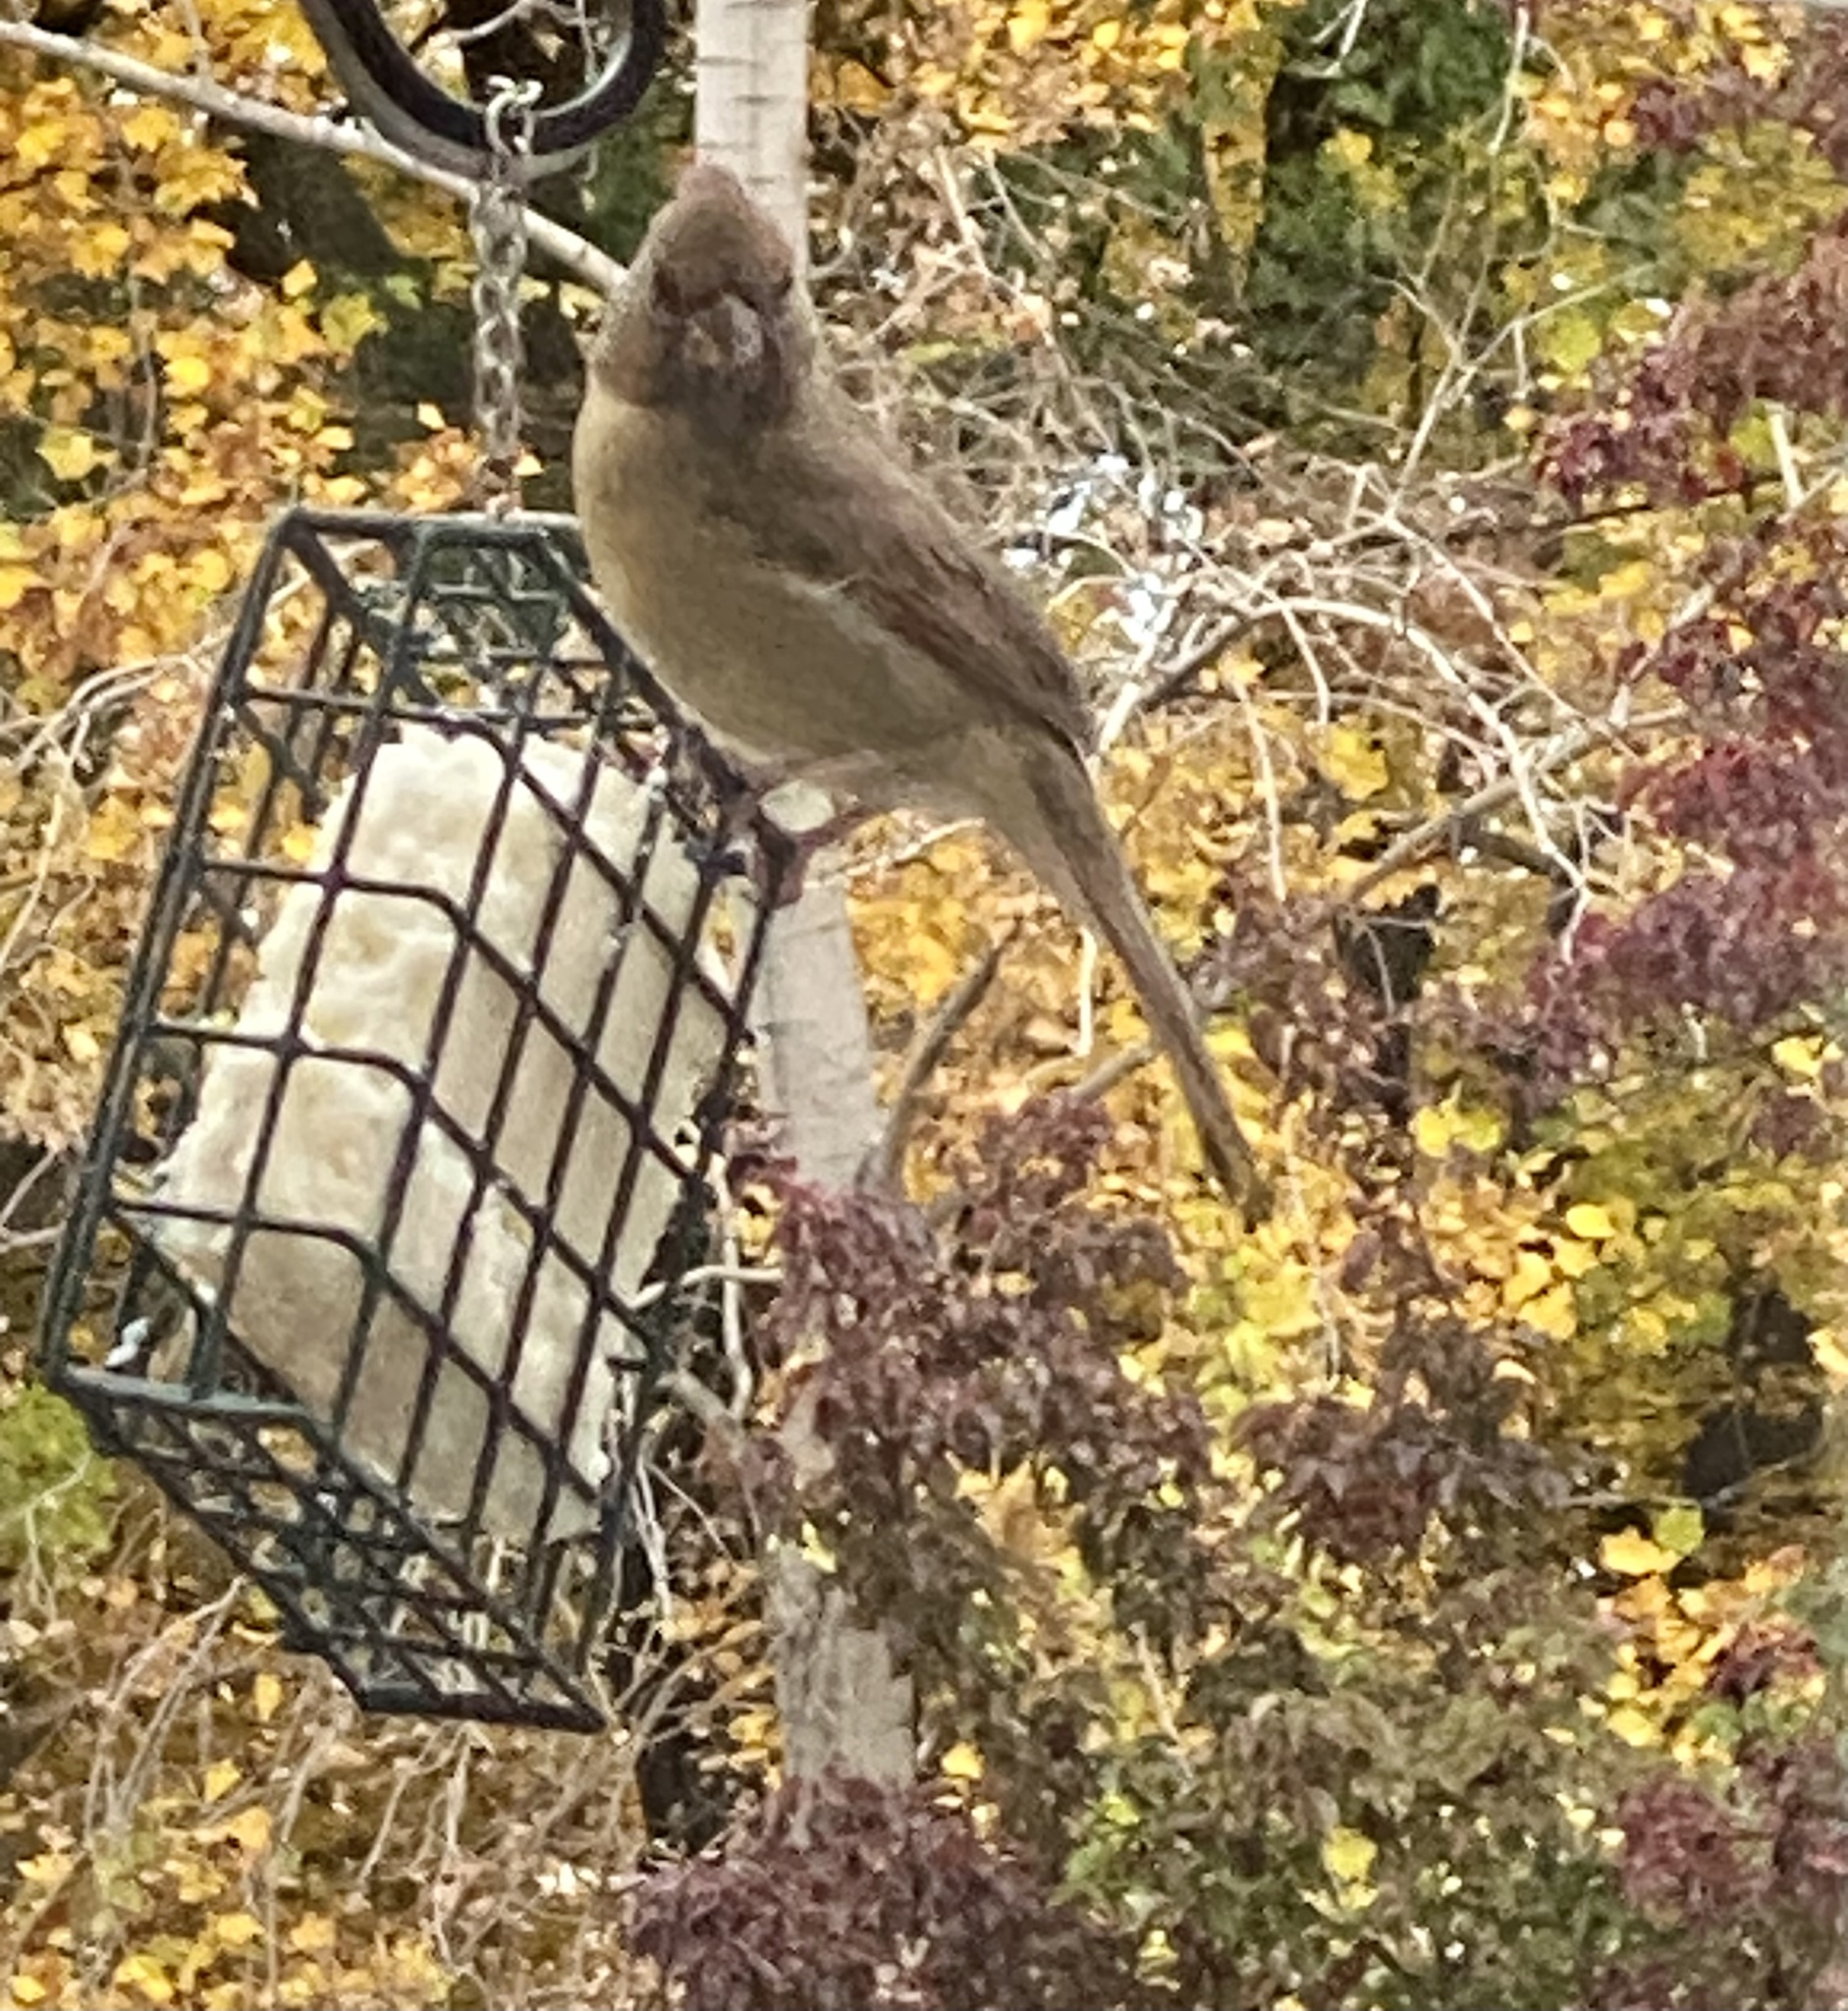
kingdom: Animalia
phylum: Chordata
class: Aves
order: Passeriformes
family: Cardinalidae
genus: Cardinalis
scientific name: Cardinalis cardinalis
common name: Northern cardinal
